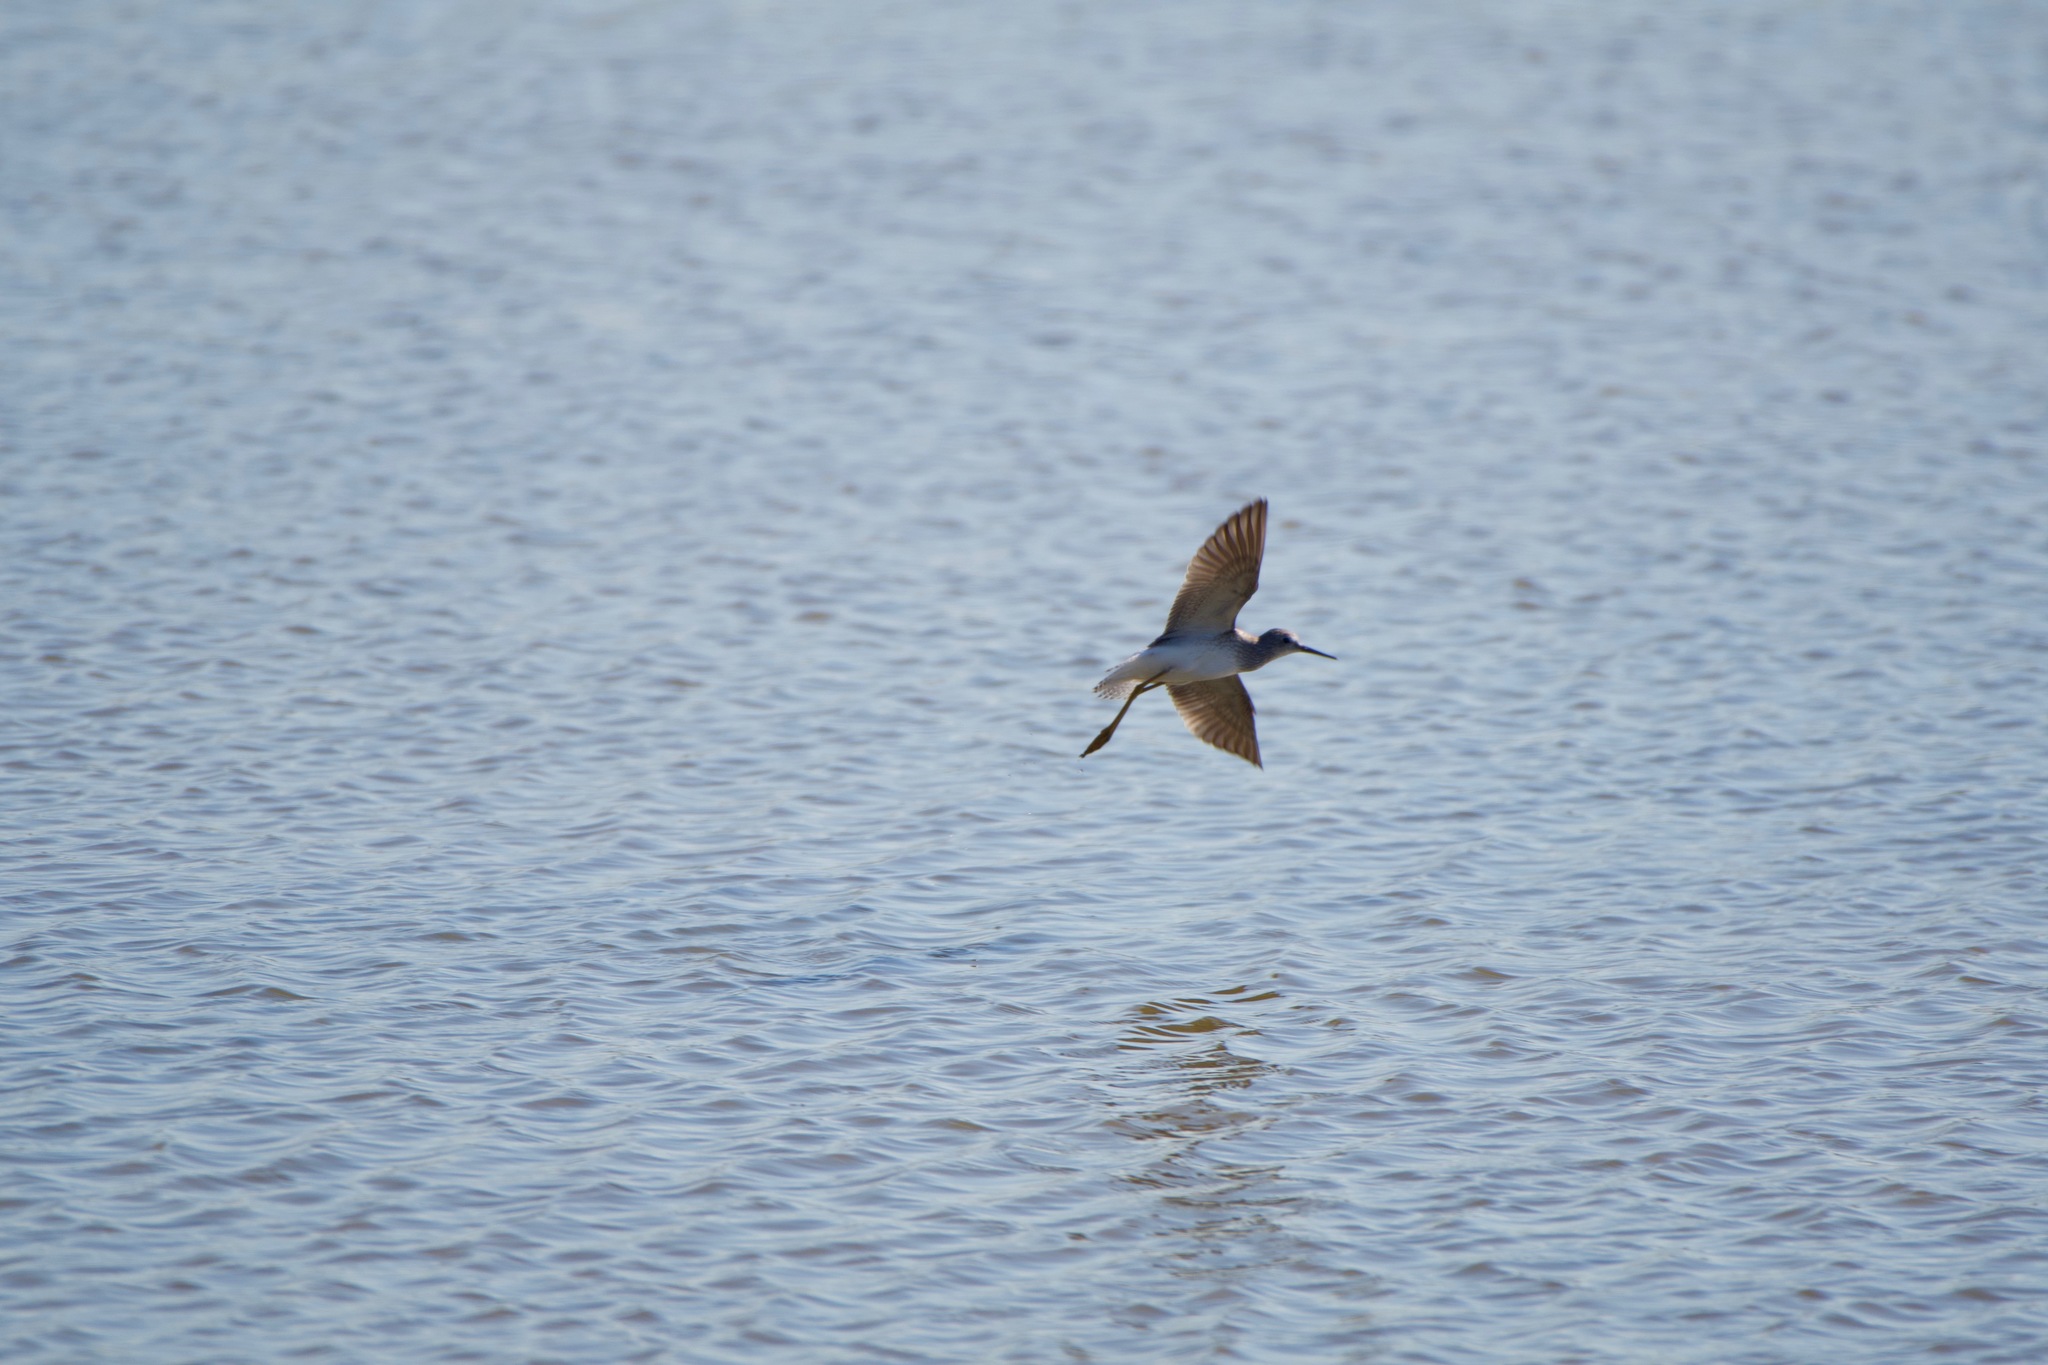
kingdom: Animalia
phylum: Chordata
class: Aves
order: Charadriiformes
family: Scolopacidae
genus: Tringa
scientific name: Tringa flavipes
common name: Lesser yellowlegs
